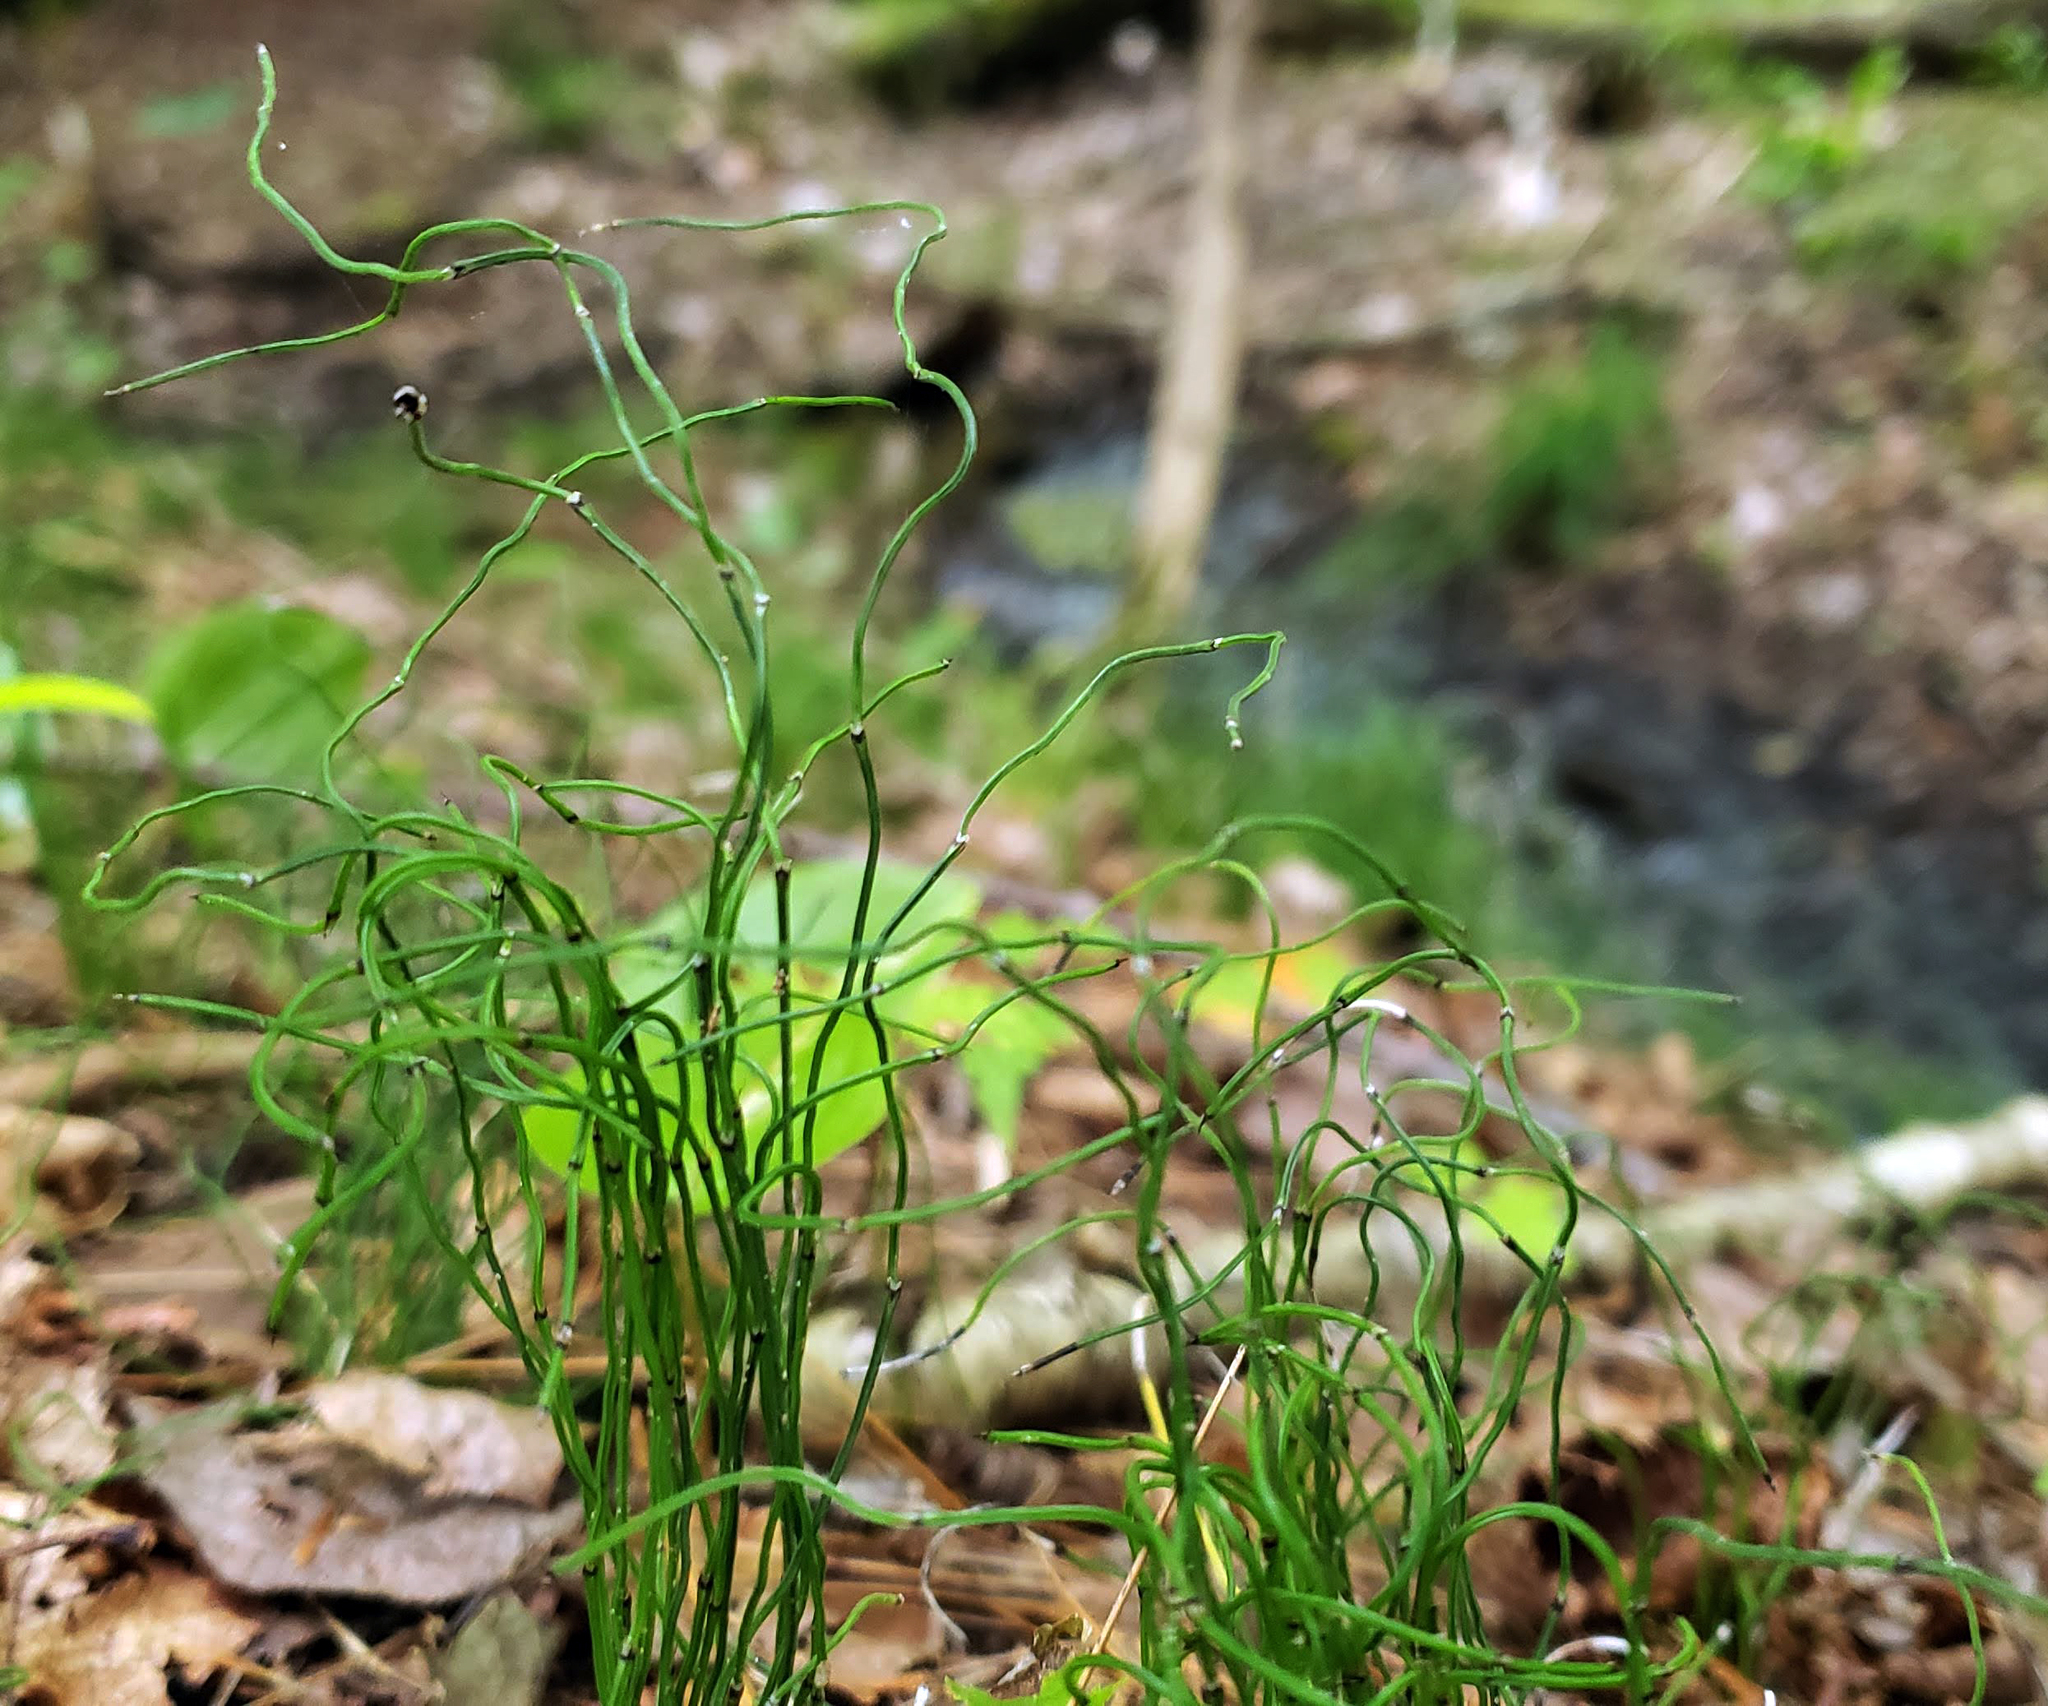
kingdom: Plantae
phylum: Tracheophyta
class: Polypodiopsida
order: Equisetales
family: Equisetaceae
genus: Equisetum
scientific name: Equisetum scirpoides
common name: Delicate horsetail
